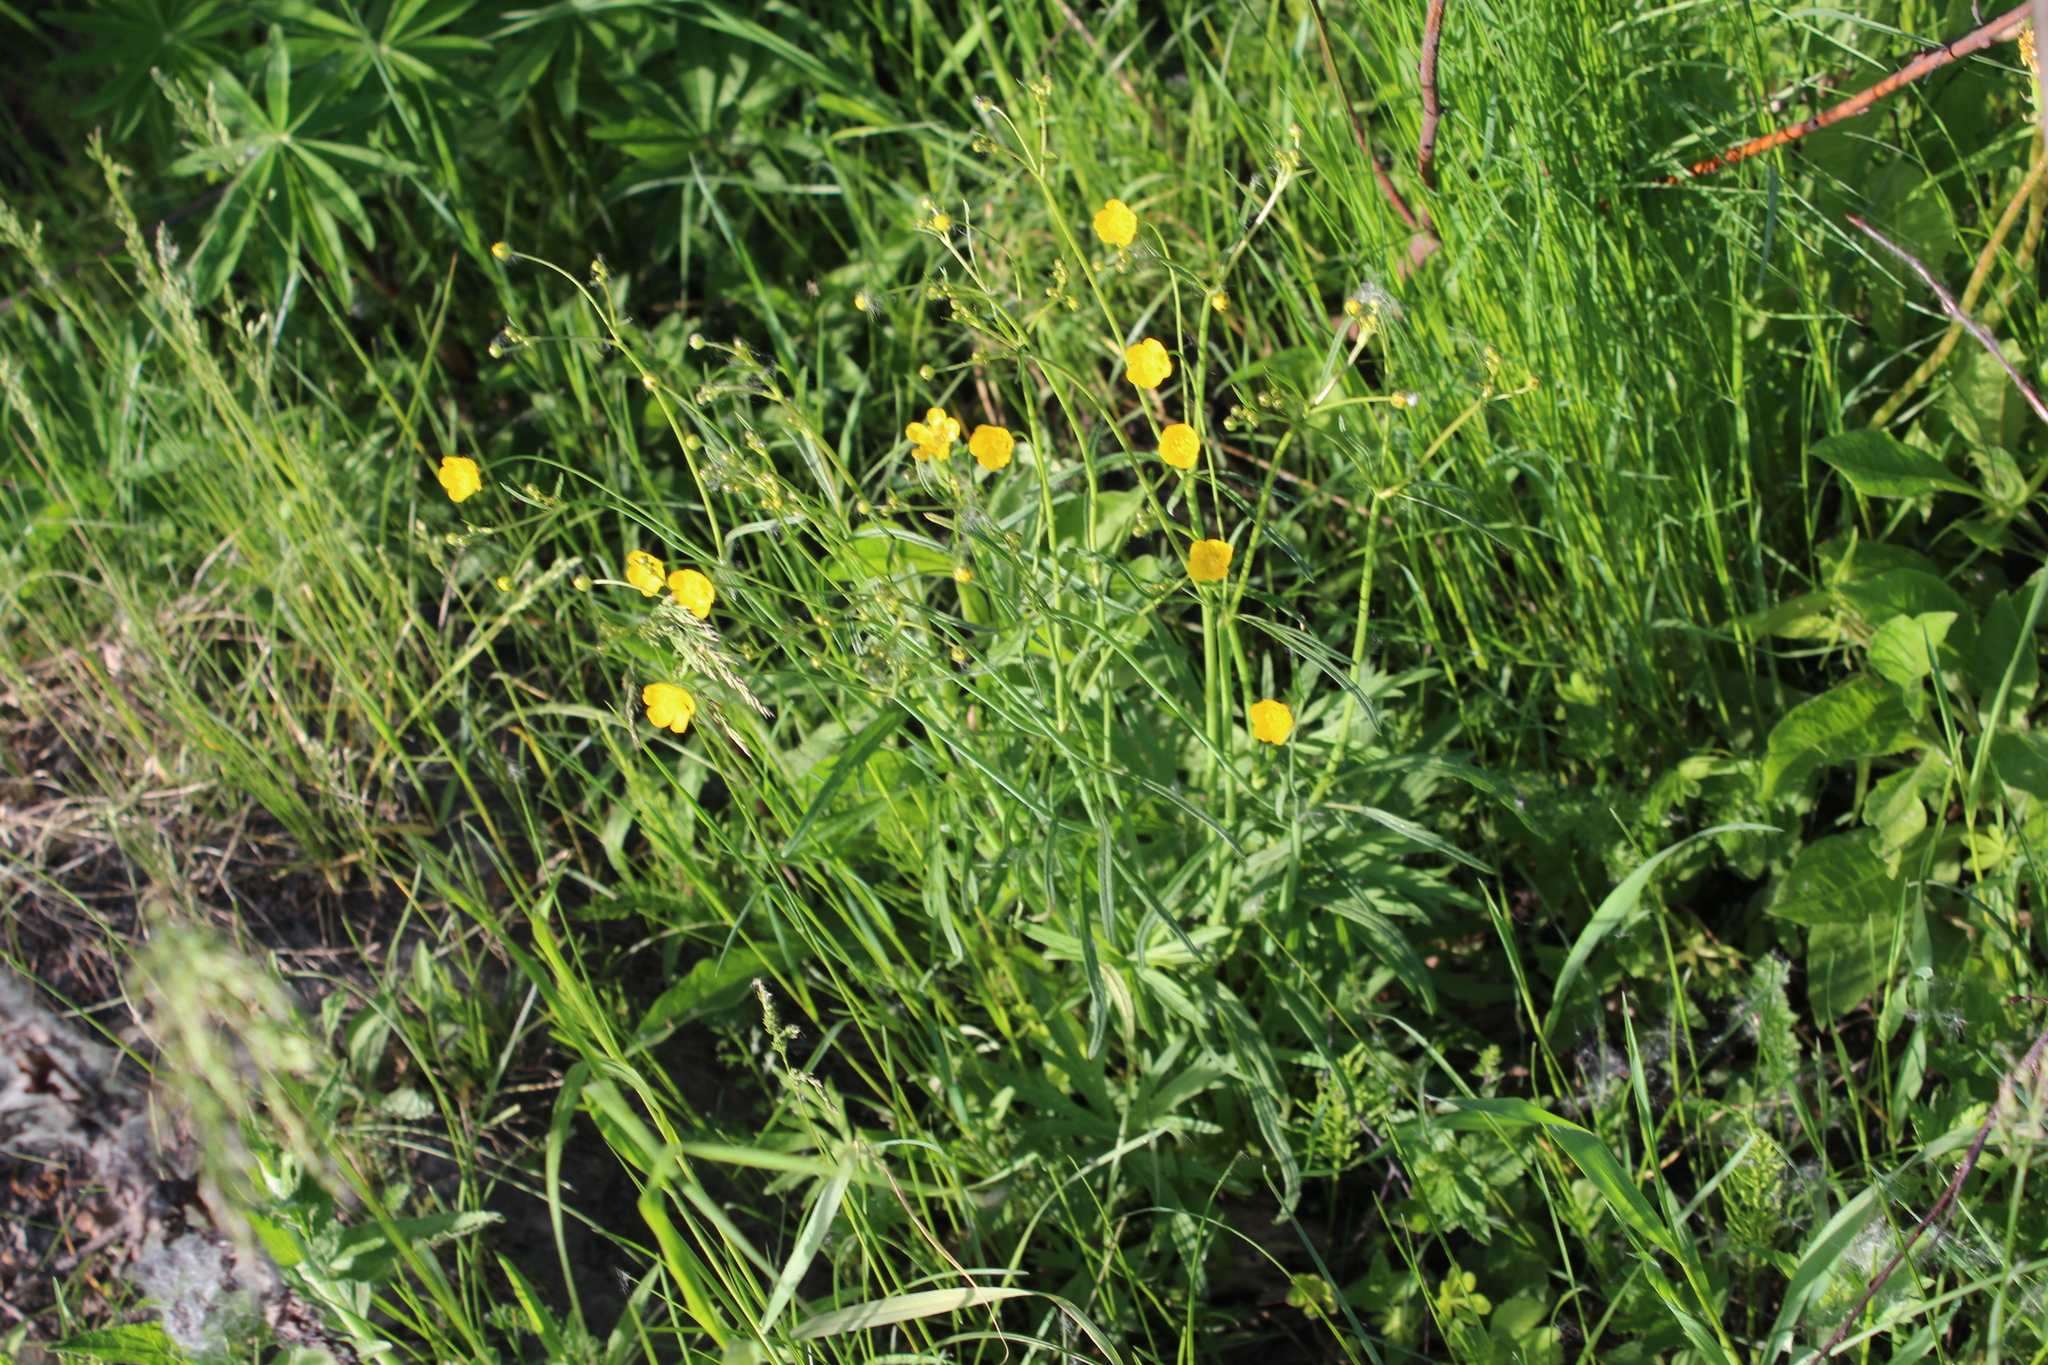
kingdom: Plantae
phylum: Tracheophyta
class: Magnoliopsida
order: Ranunculales
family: Ranunculaceae
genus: Ranunculus
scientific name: Ranunculus acris
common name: Meadow buttercup
